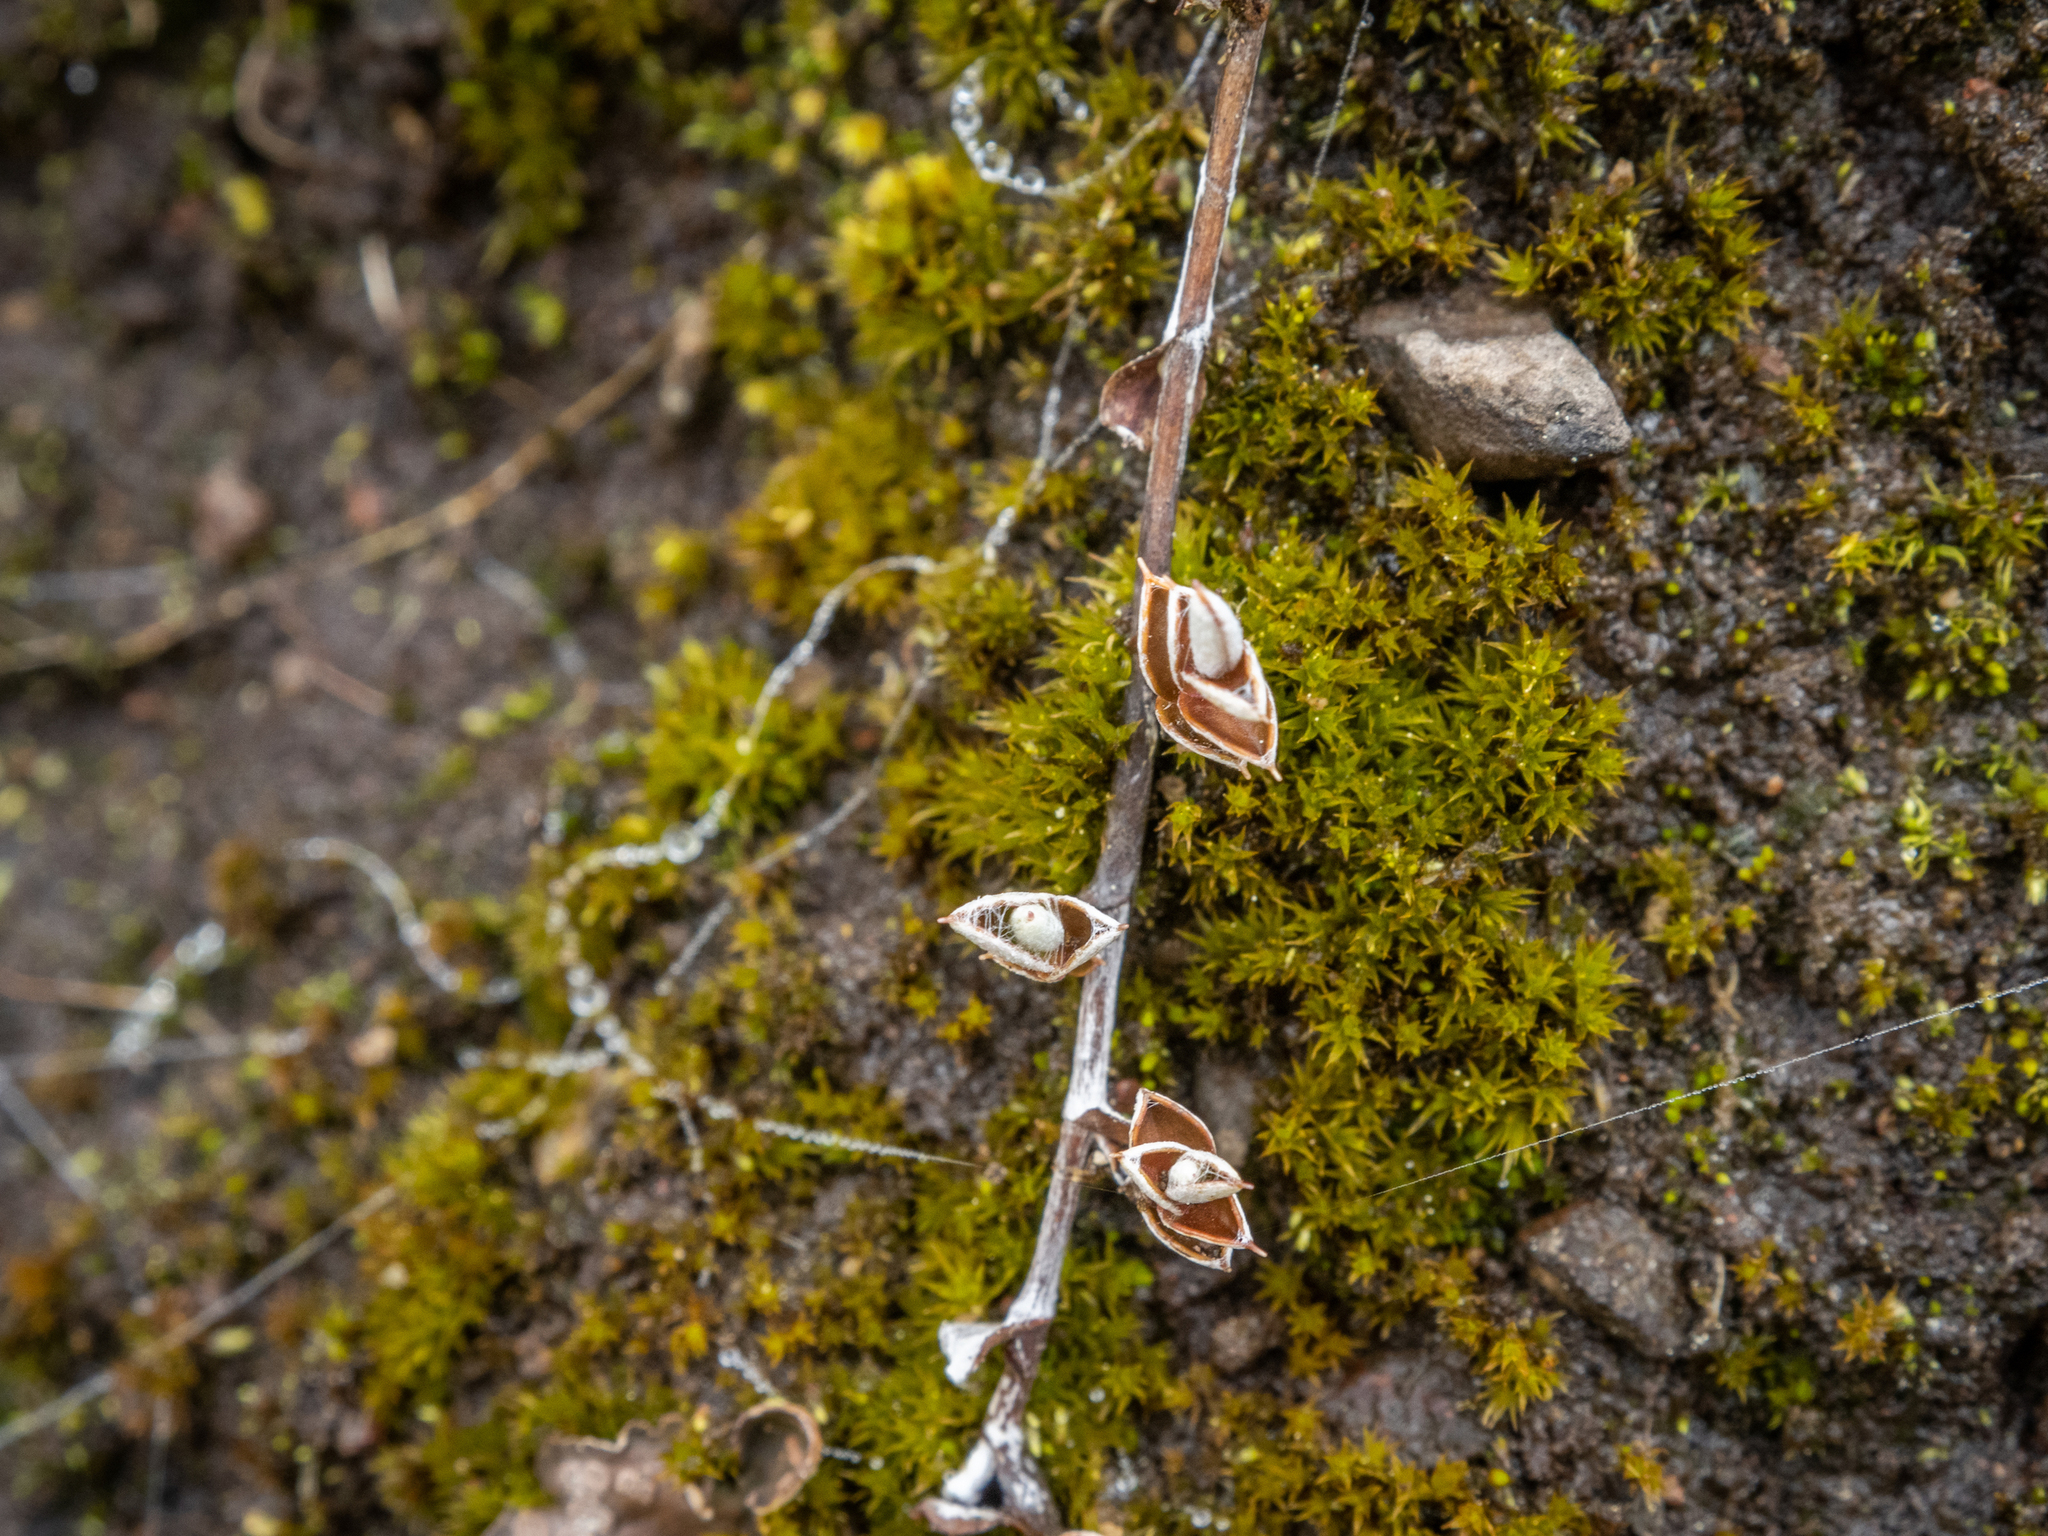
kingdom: Plantae
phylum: Tracheophyta
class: Magnoliopsida
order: Asterales
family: Asteraceae
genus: Helichrysum
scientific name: Helichrysum filicaule
